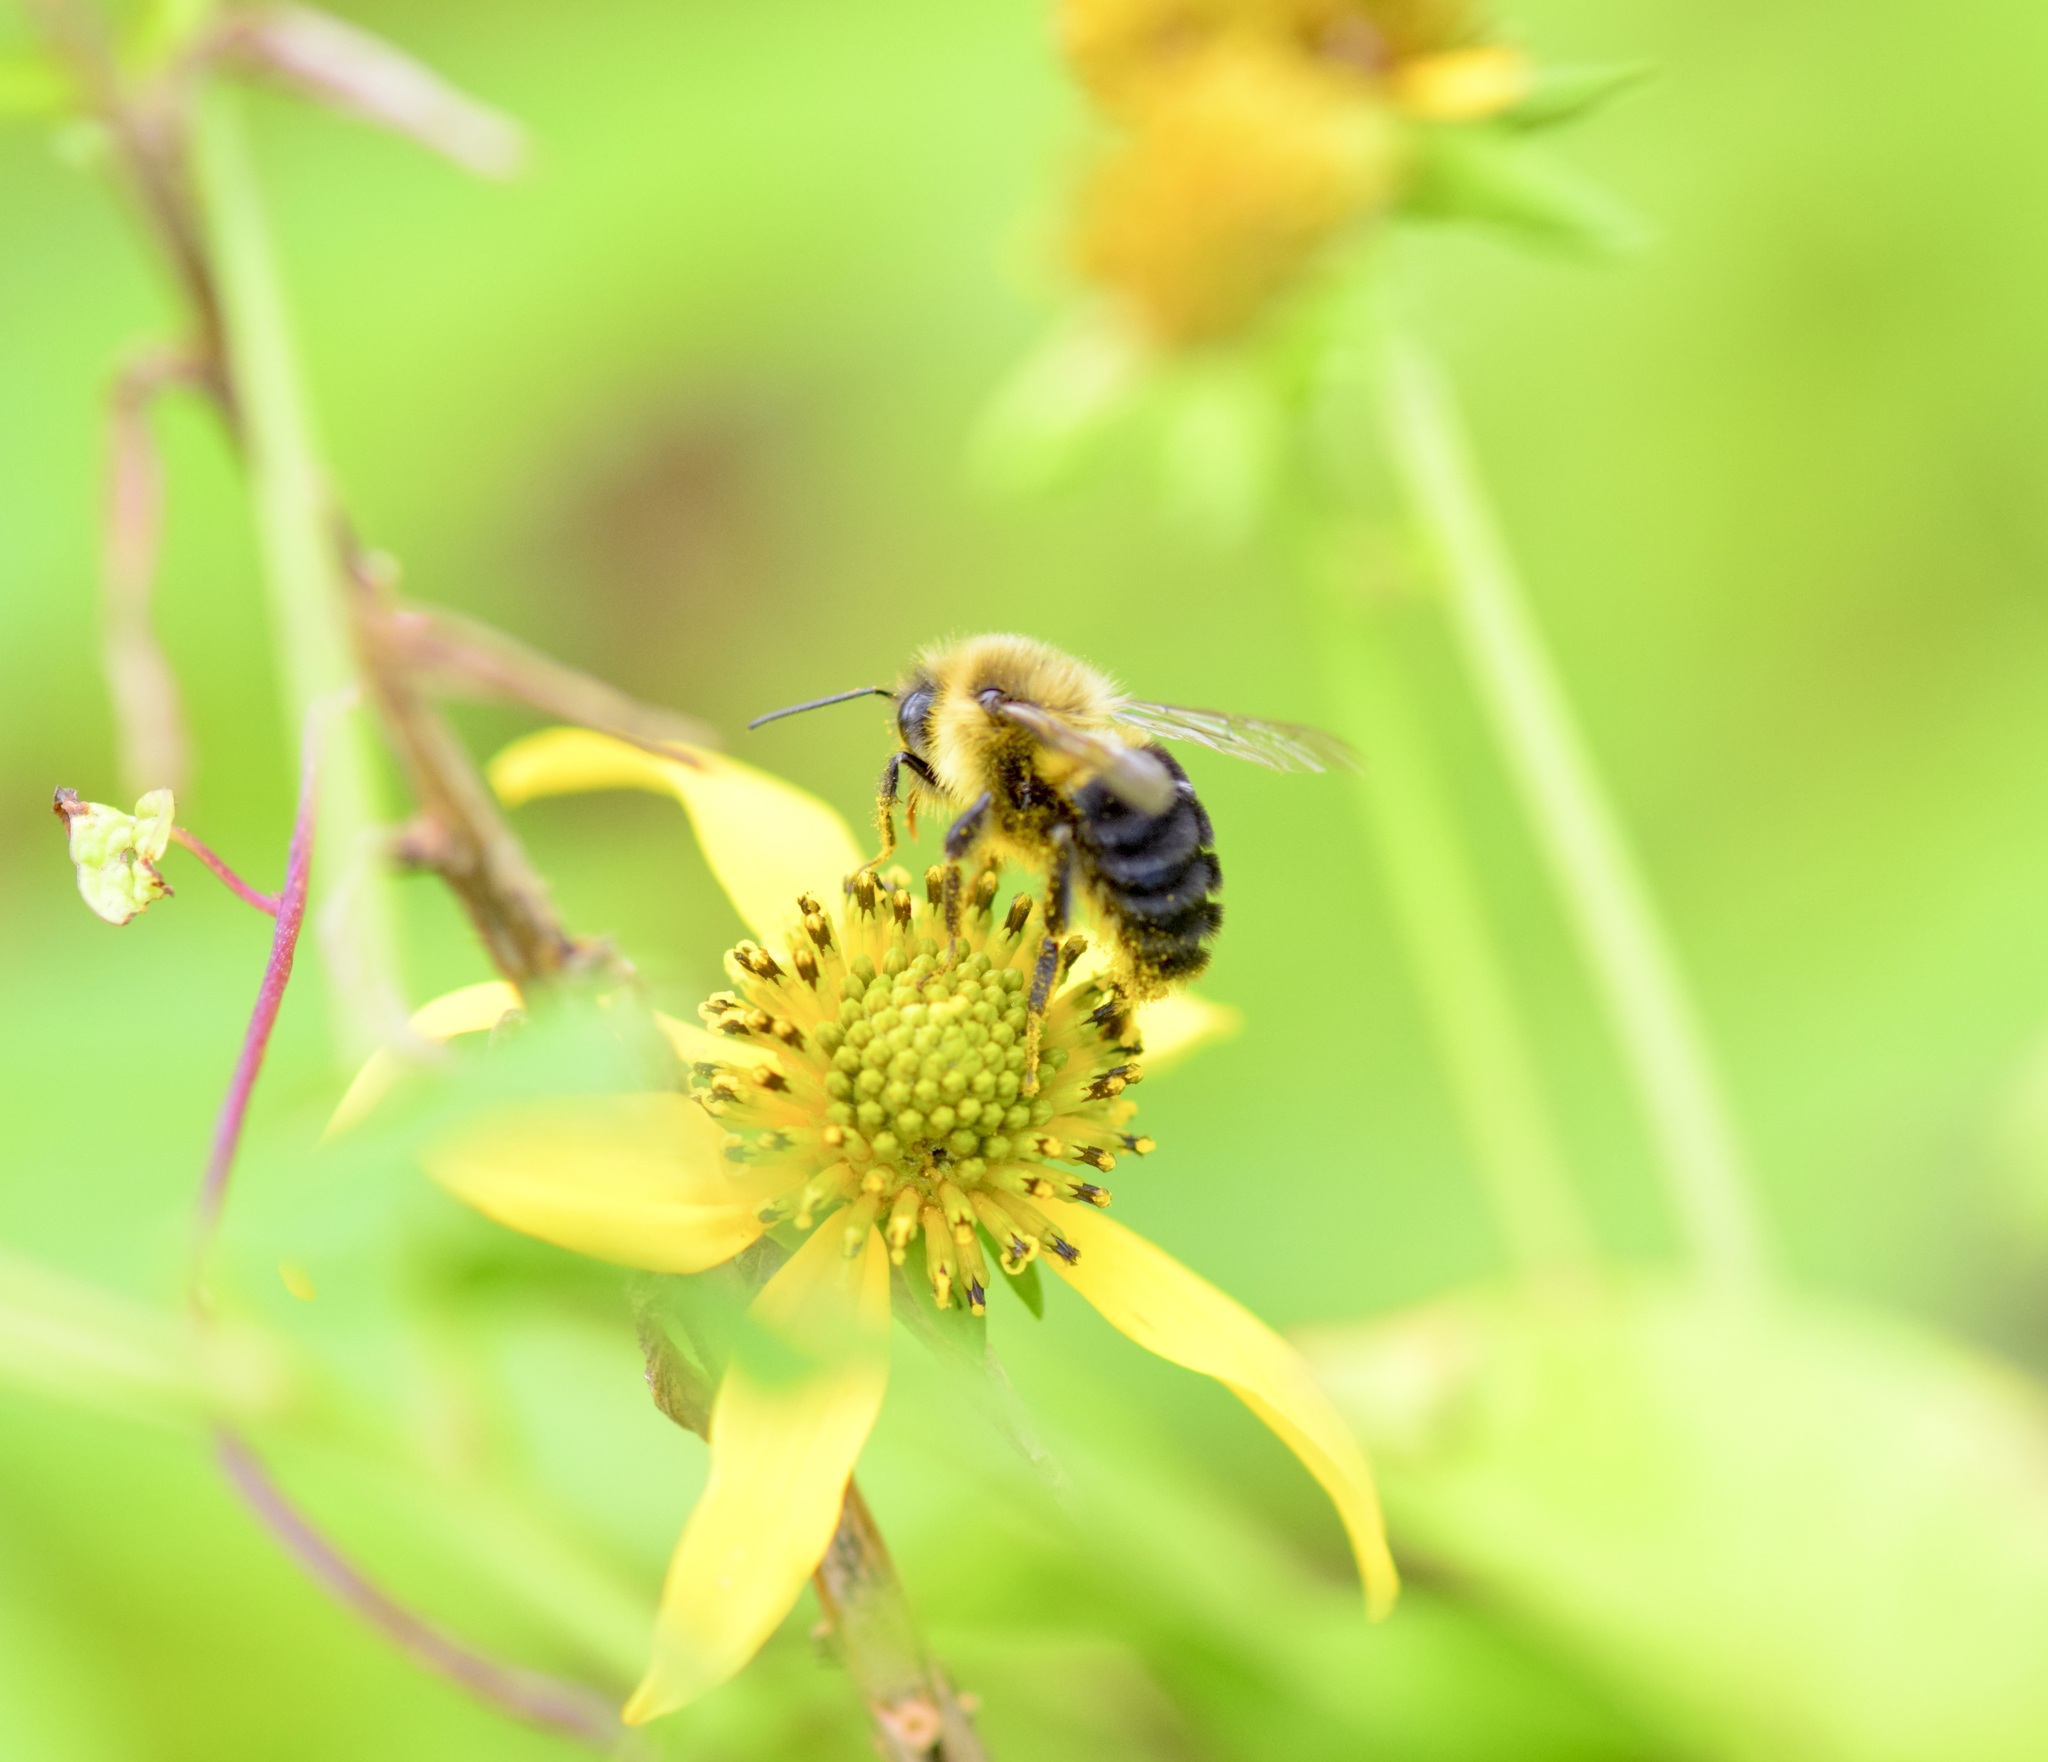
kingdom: Animalia
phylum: Arthropoda
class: Insecta
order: Hymenoptera
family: Apidae
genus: Bombus
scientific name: Bombus impatiens
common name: Common eastern bumble bee
